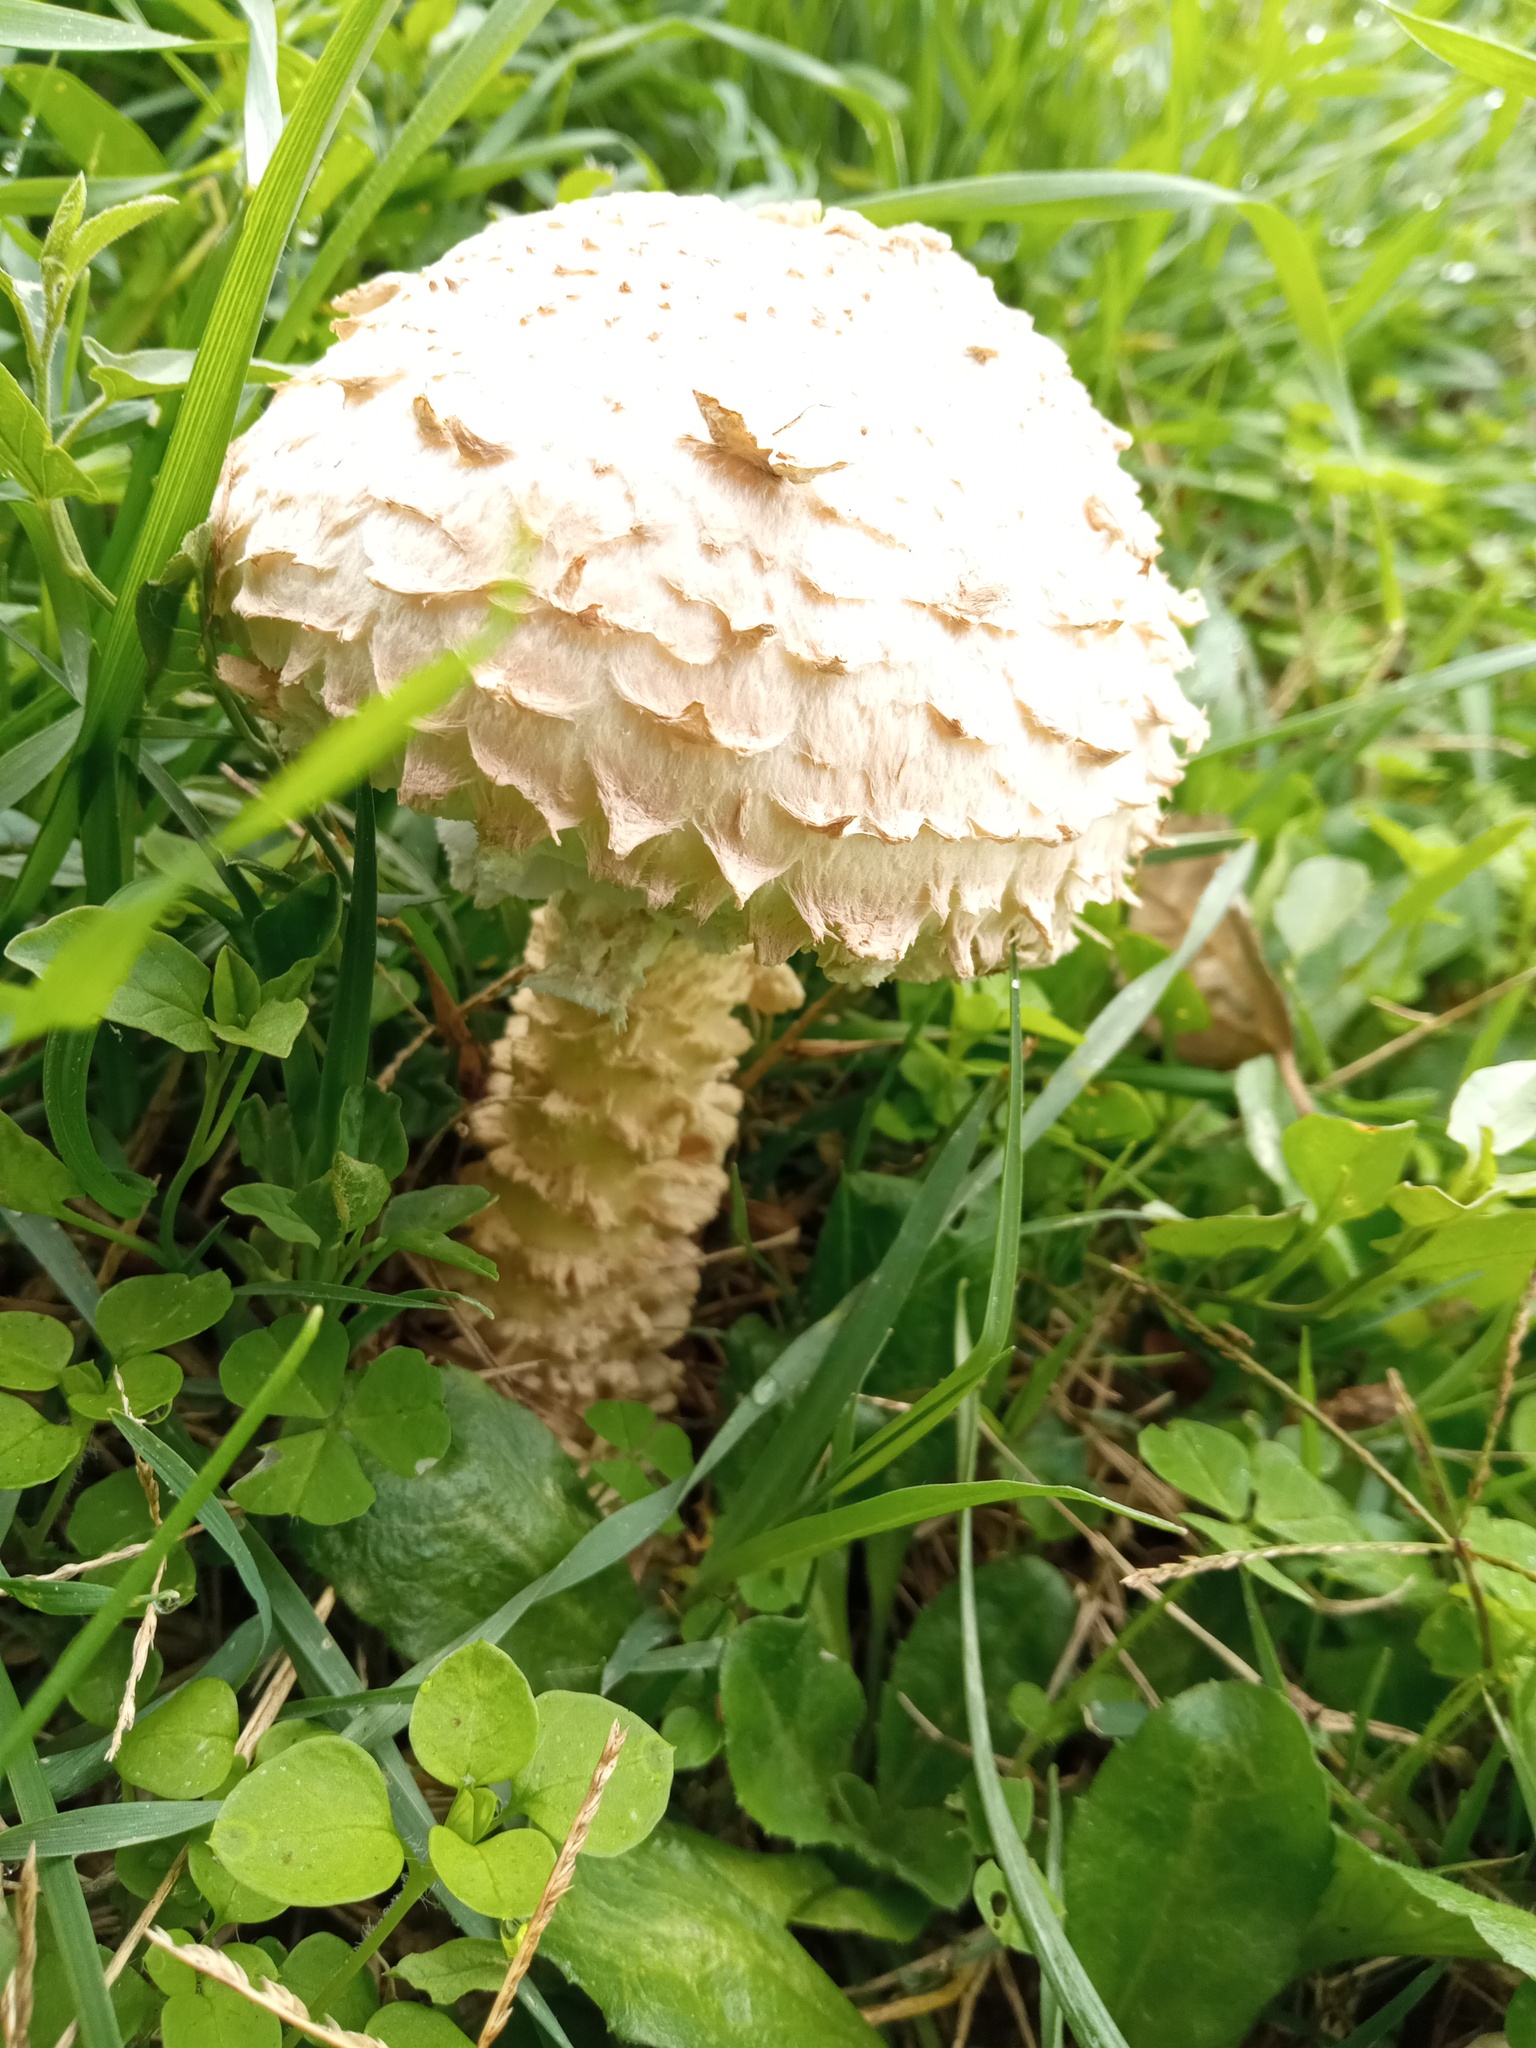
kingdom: Fungi
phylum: Basidiomycota
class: Agaricomycetes
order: Agaricales
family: Amanitaceae
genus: Amanita
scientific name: Amanita vittadinii
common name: Barefoot amanita
